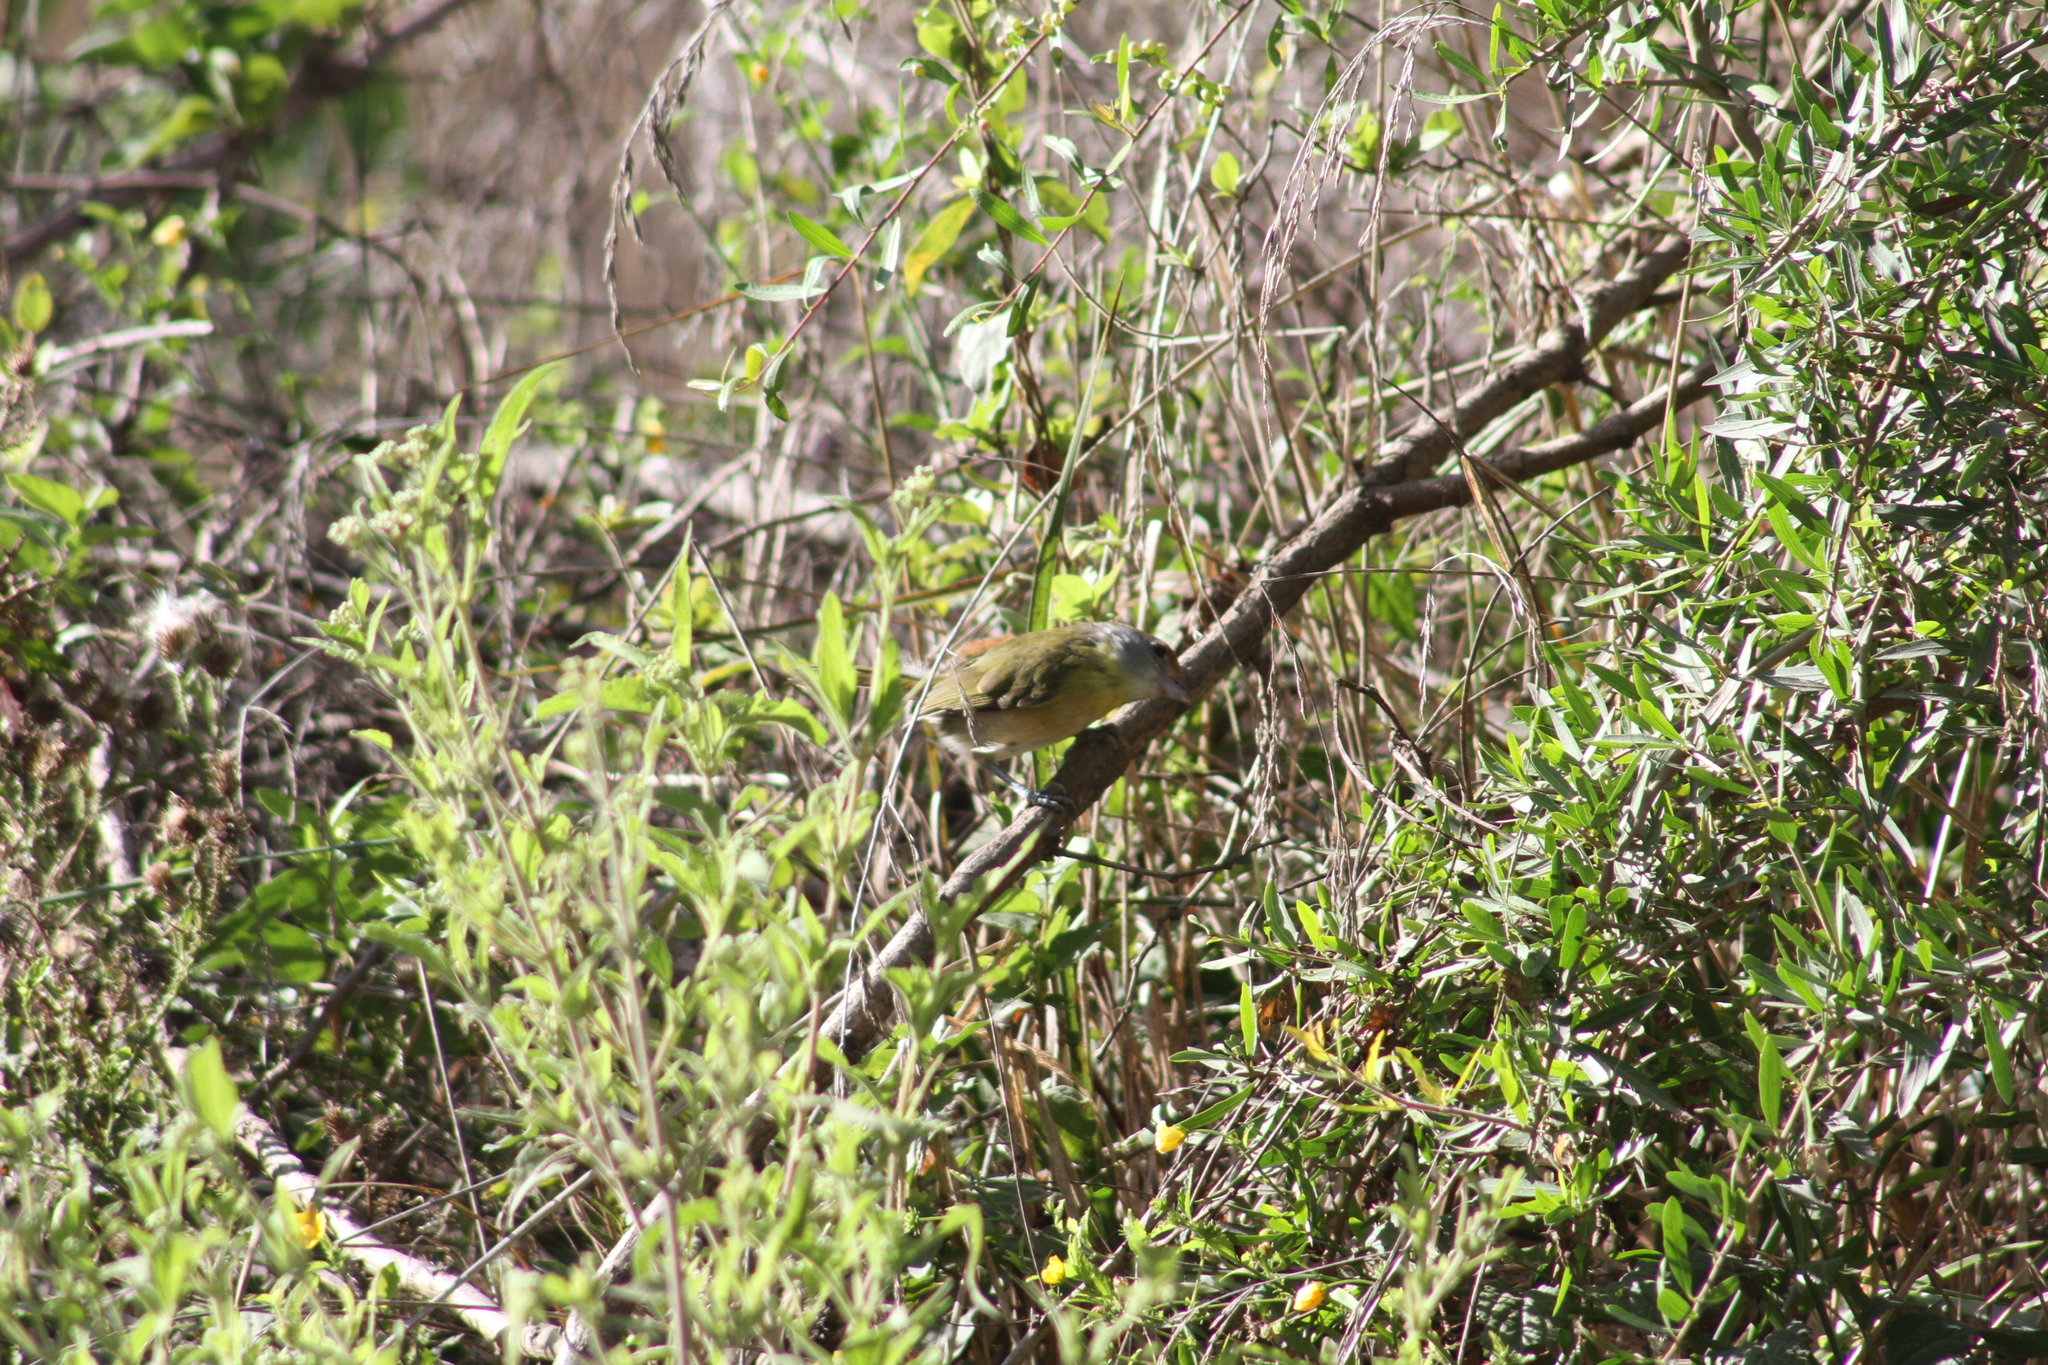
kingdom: Animalia
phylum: Chordata
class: Aves
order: Passeriformes
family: Vireonidae
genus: Cyclarhis
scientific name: Cyclarhis gujanensis
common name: Rufous-browed peppershrike
